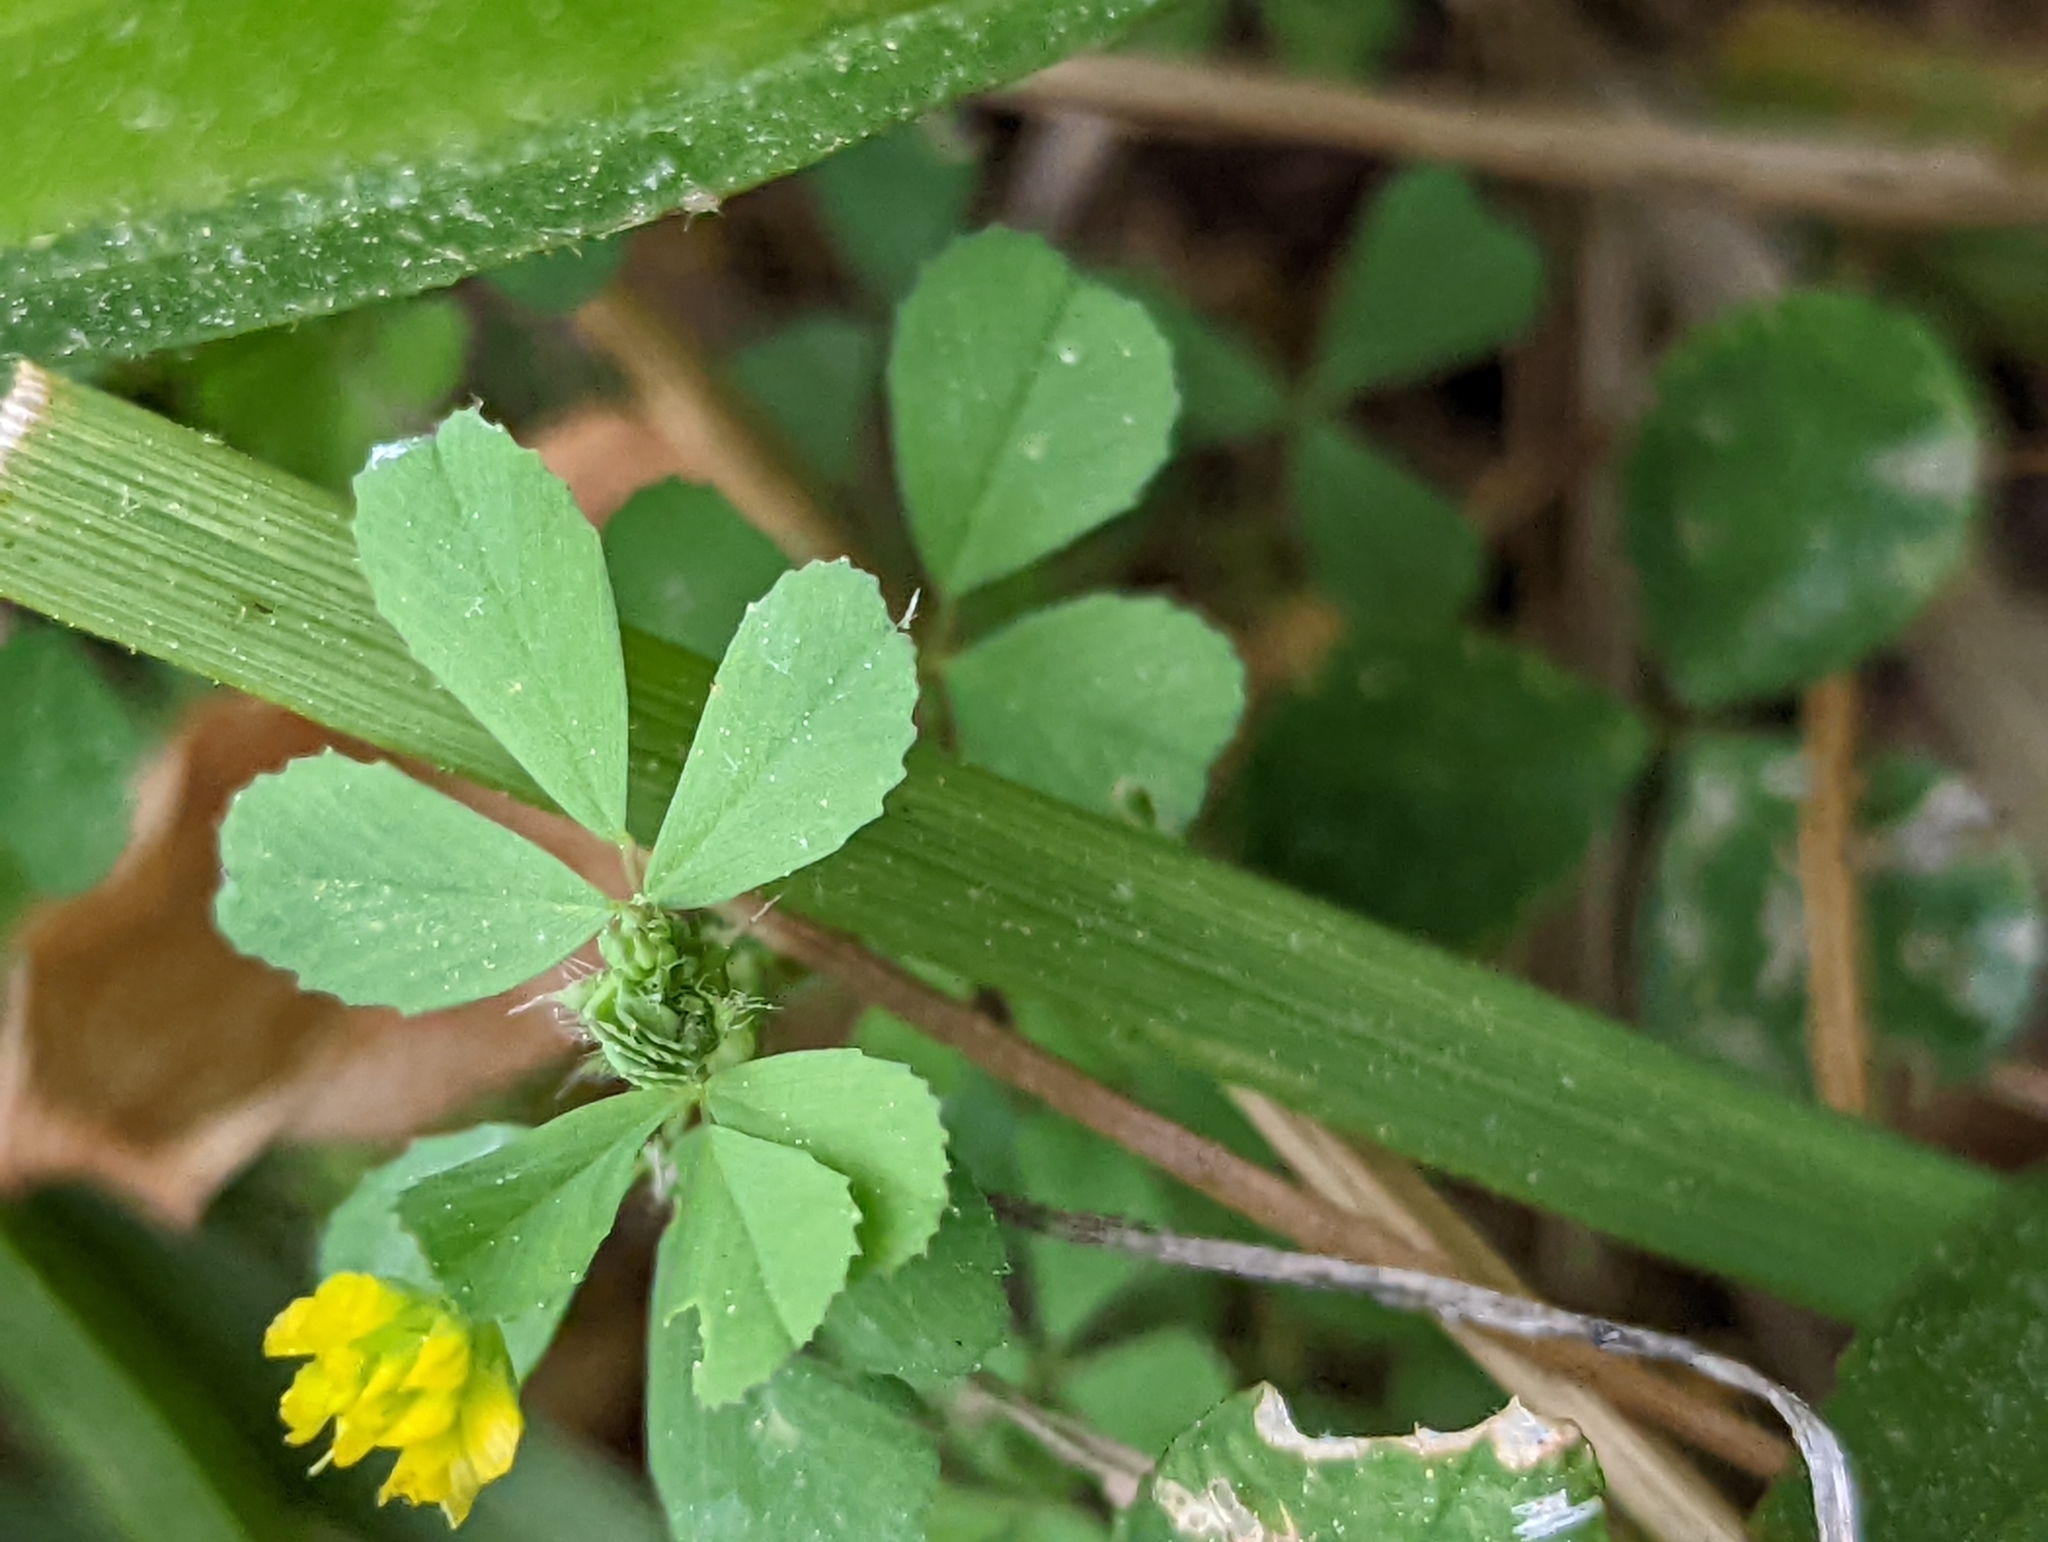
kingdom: Plantae
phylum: Tracheophyta
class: Magnoliopsida
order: Fabales
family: Fabaceae
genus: Trifolium
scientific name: Trifolium dubium
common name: Suckling clover
